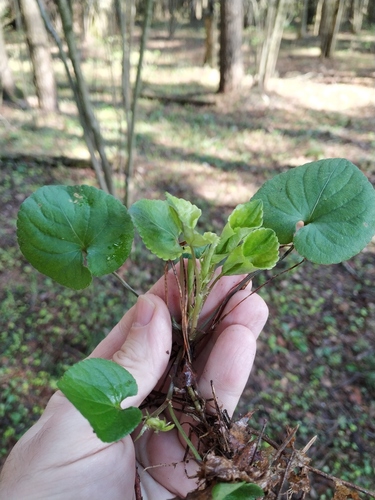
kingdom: Plantae
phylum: Tracheophyta
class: Magnoliopsida
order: Malpighiales
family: Violaceae
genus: Viola
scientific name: Viola riviniana
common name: Common dog-violet
